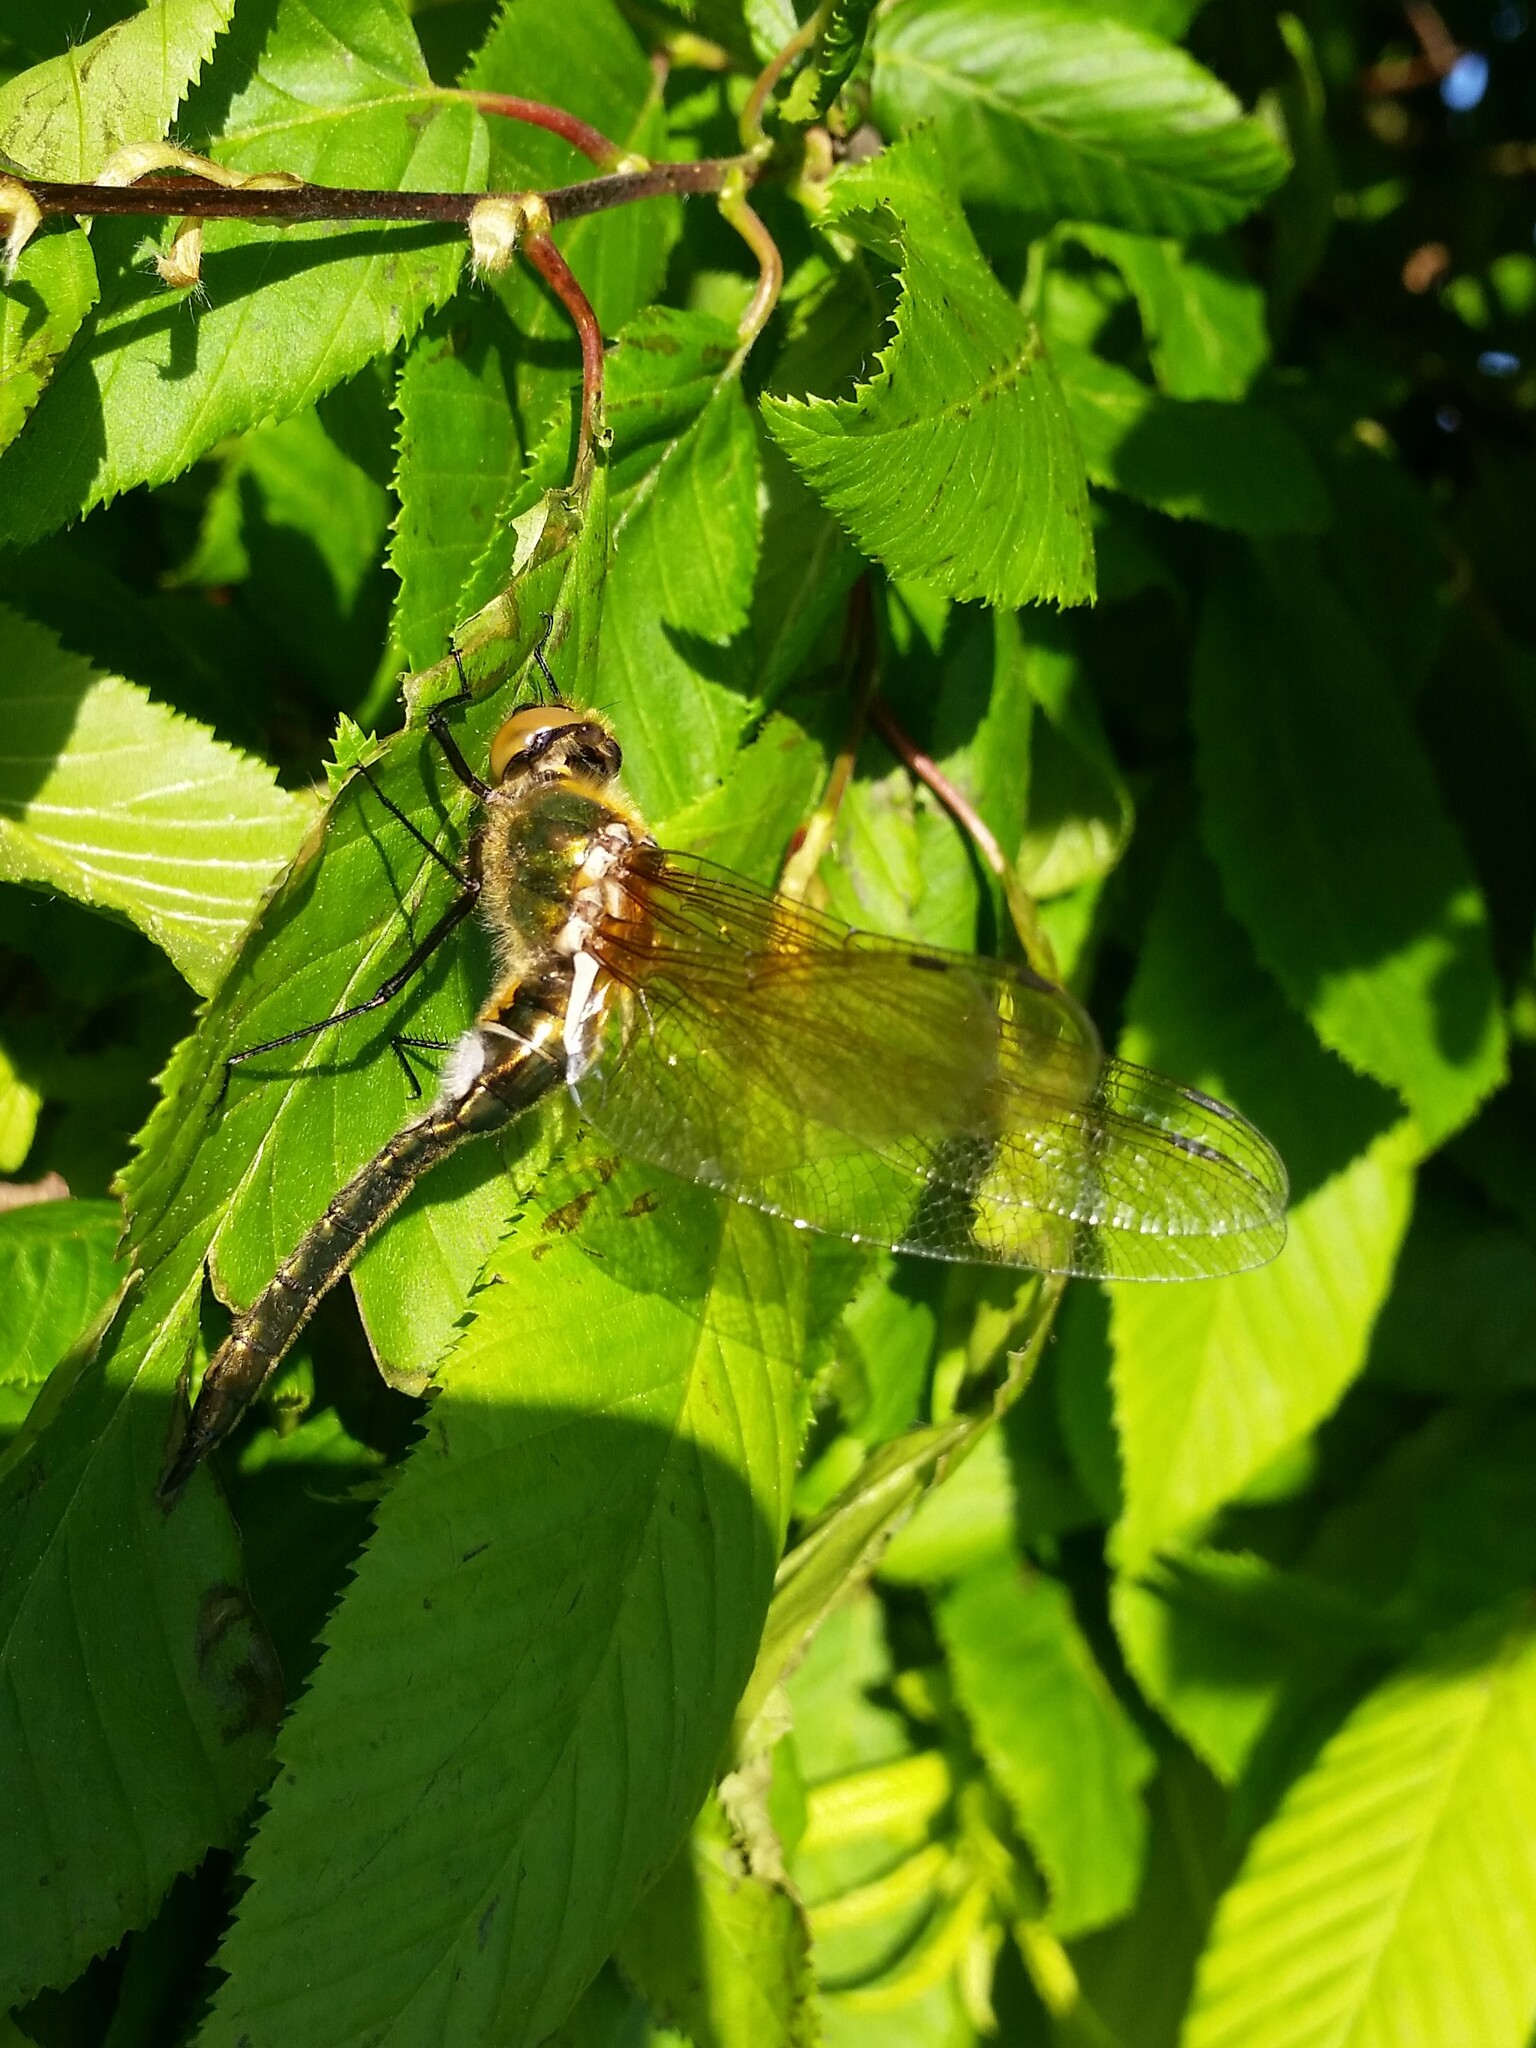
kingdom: Animalia
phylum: Arthropoda
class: Insecta
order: Odonata
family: Corduliidae
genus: Cordulia
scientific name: Cordulia aenea
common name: Downy emerald
